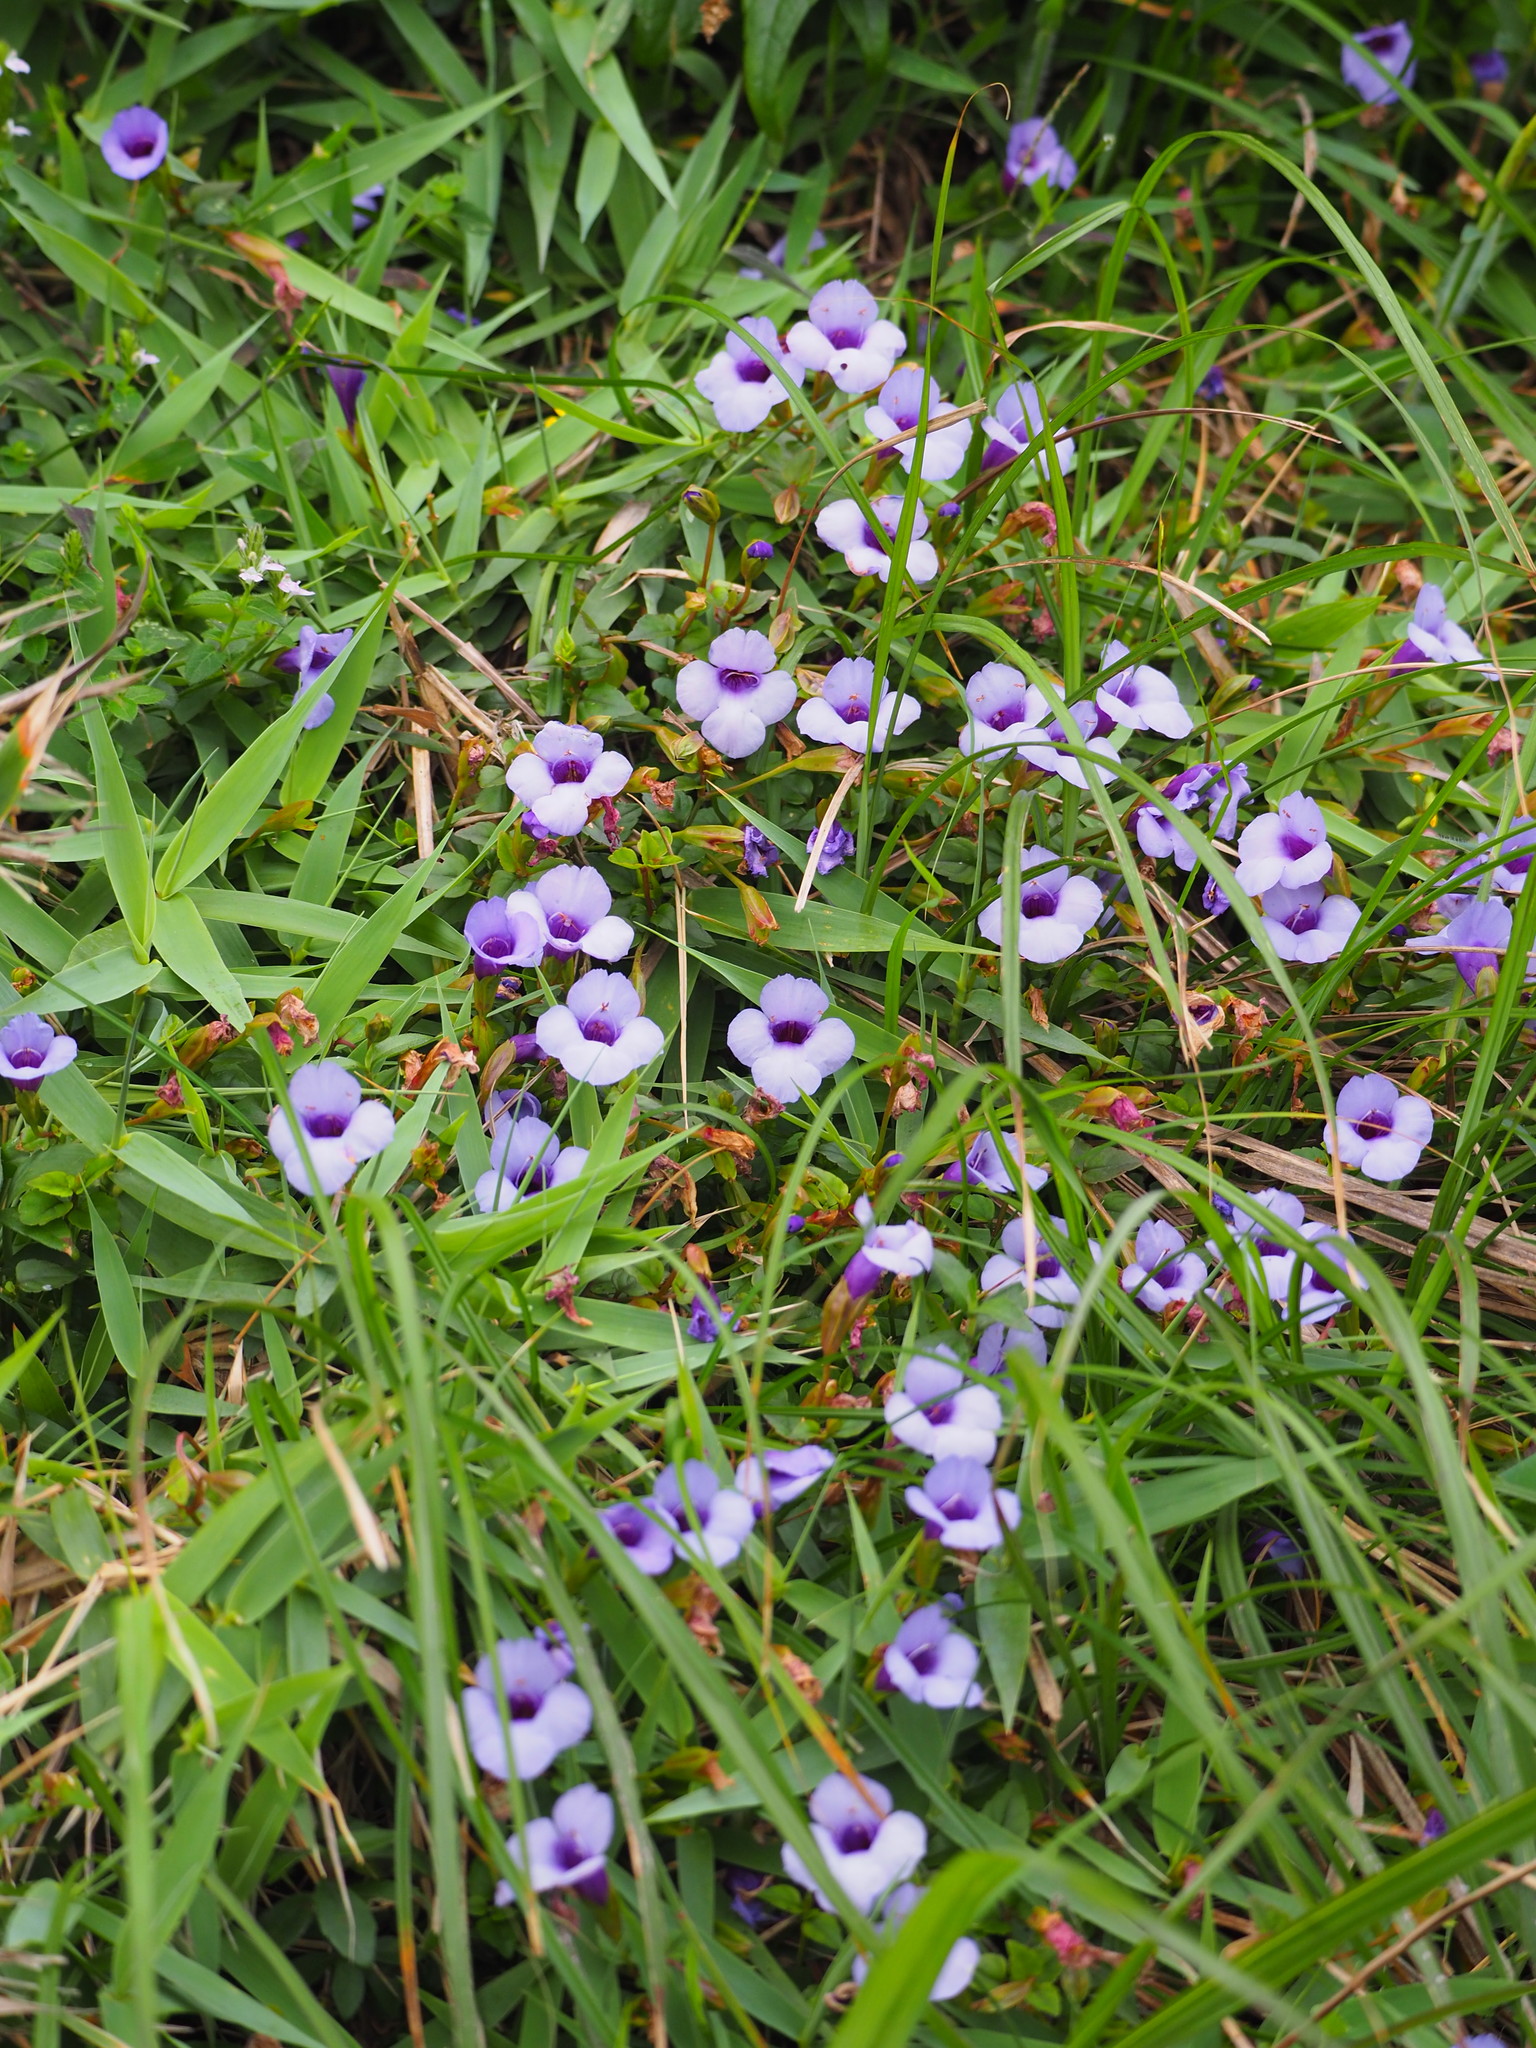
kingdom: Plantae
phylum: Tracheophyta
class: Magnoliopsida
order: Lamiales
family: Linderniaceae
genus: Torenia
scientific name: Torenia concolor
